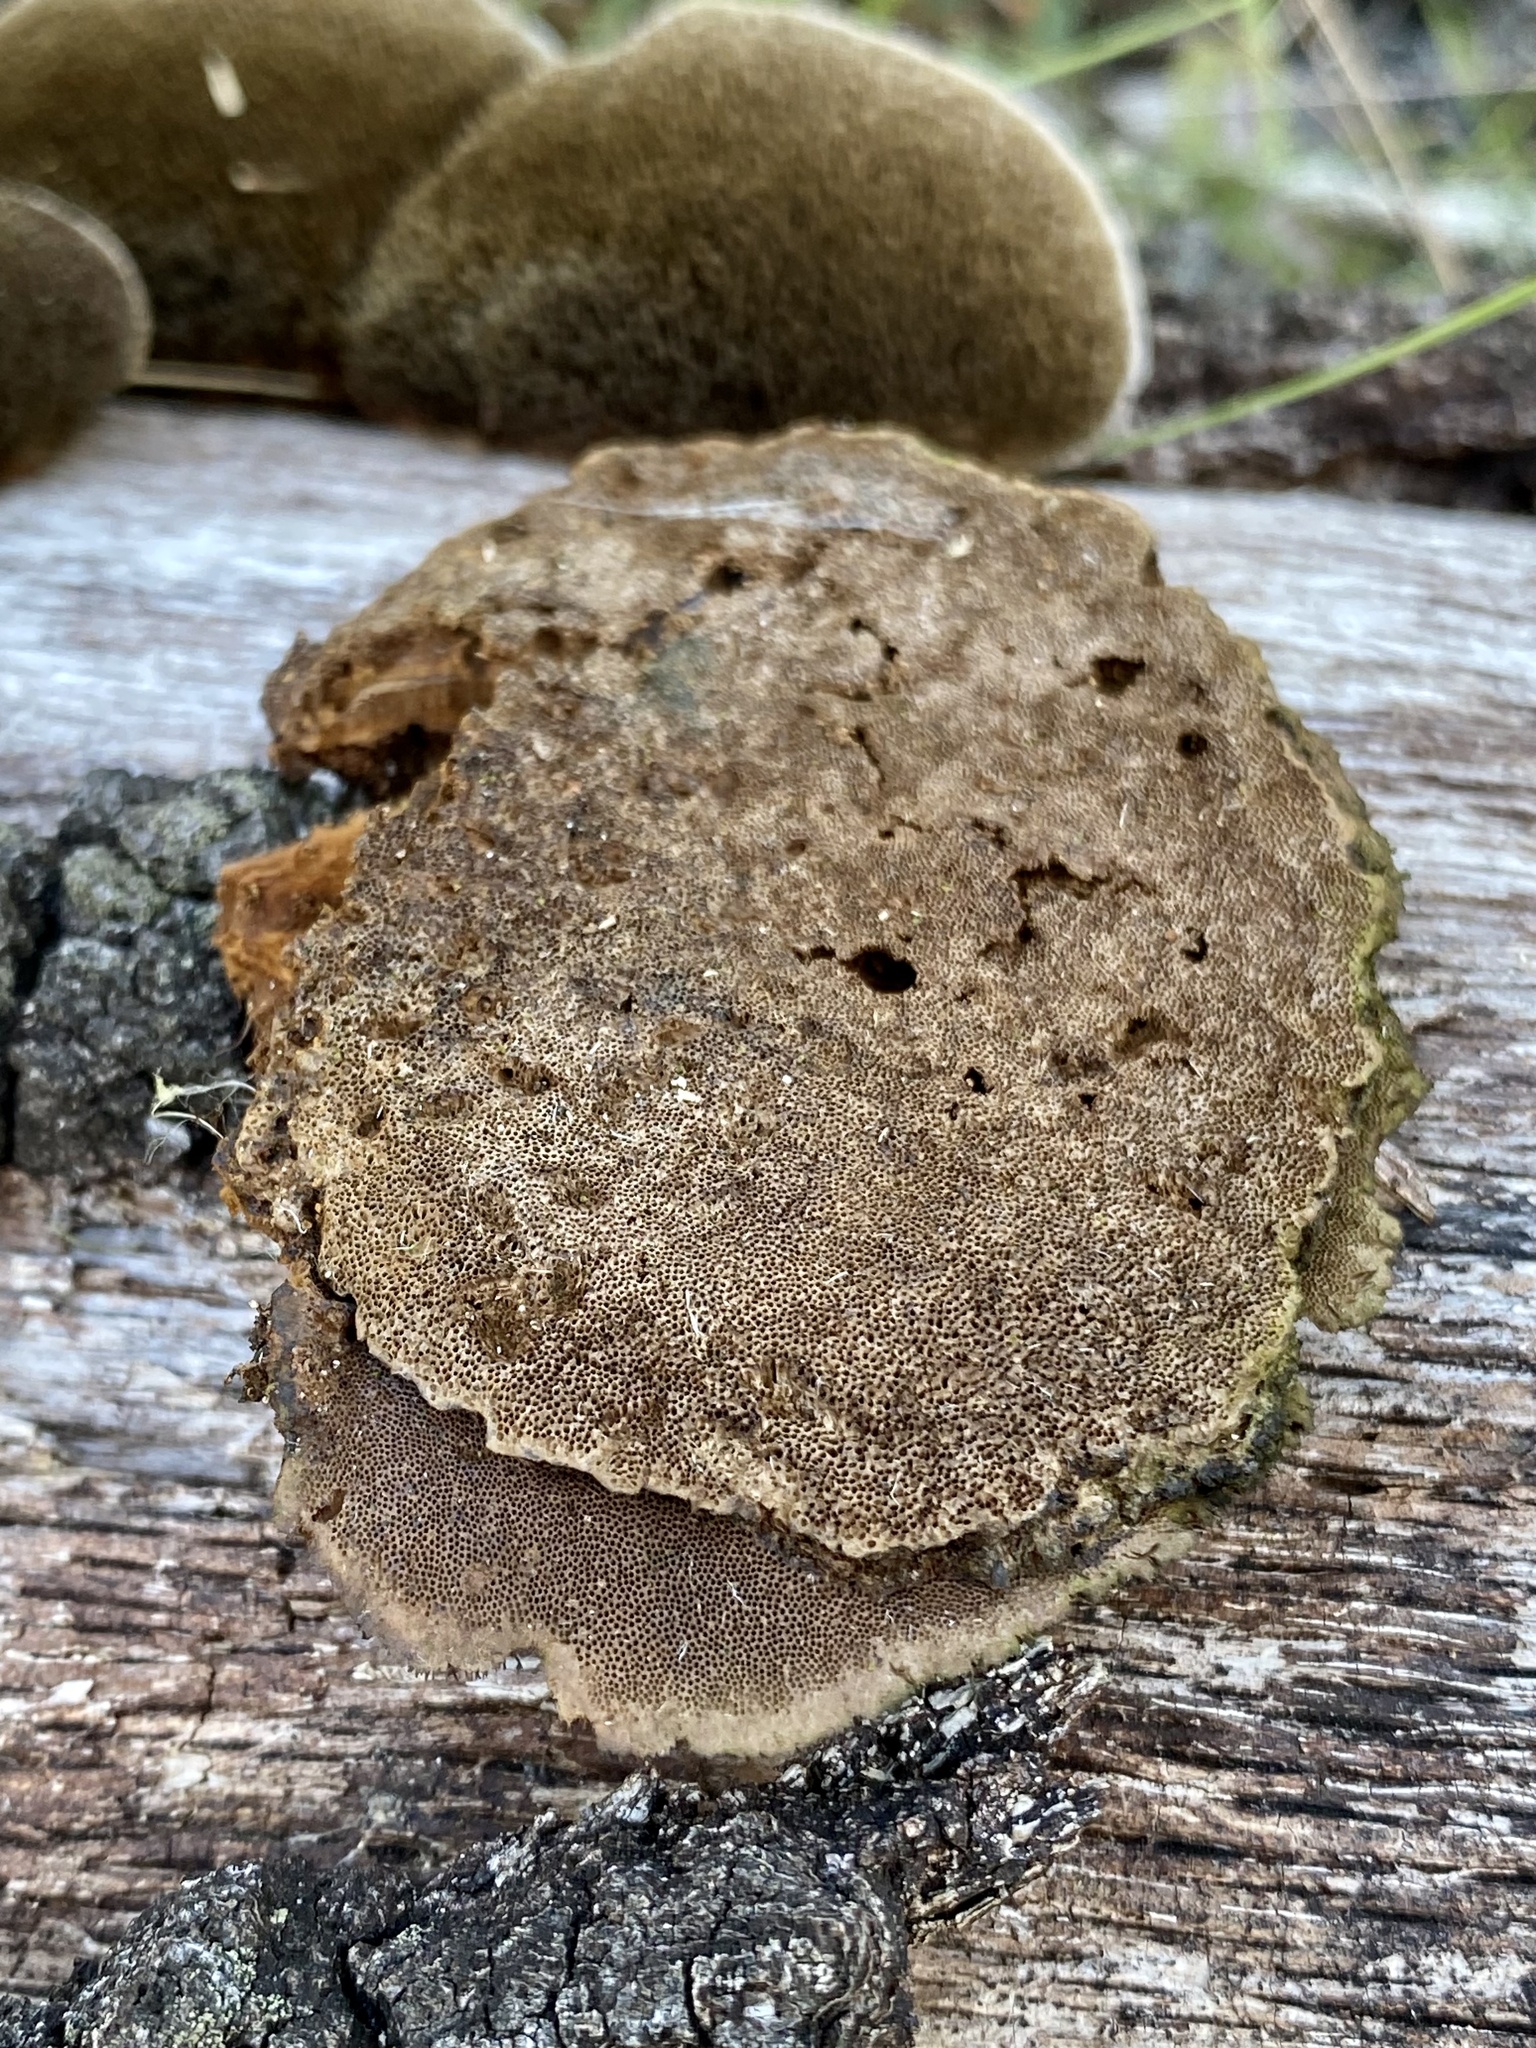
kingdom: Fungi
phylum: Basidiomycota
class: Agaricomycetes
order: Polyporales
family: Cerrenaceae
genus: Cerrena
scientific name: Cerrena hydnoides
